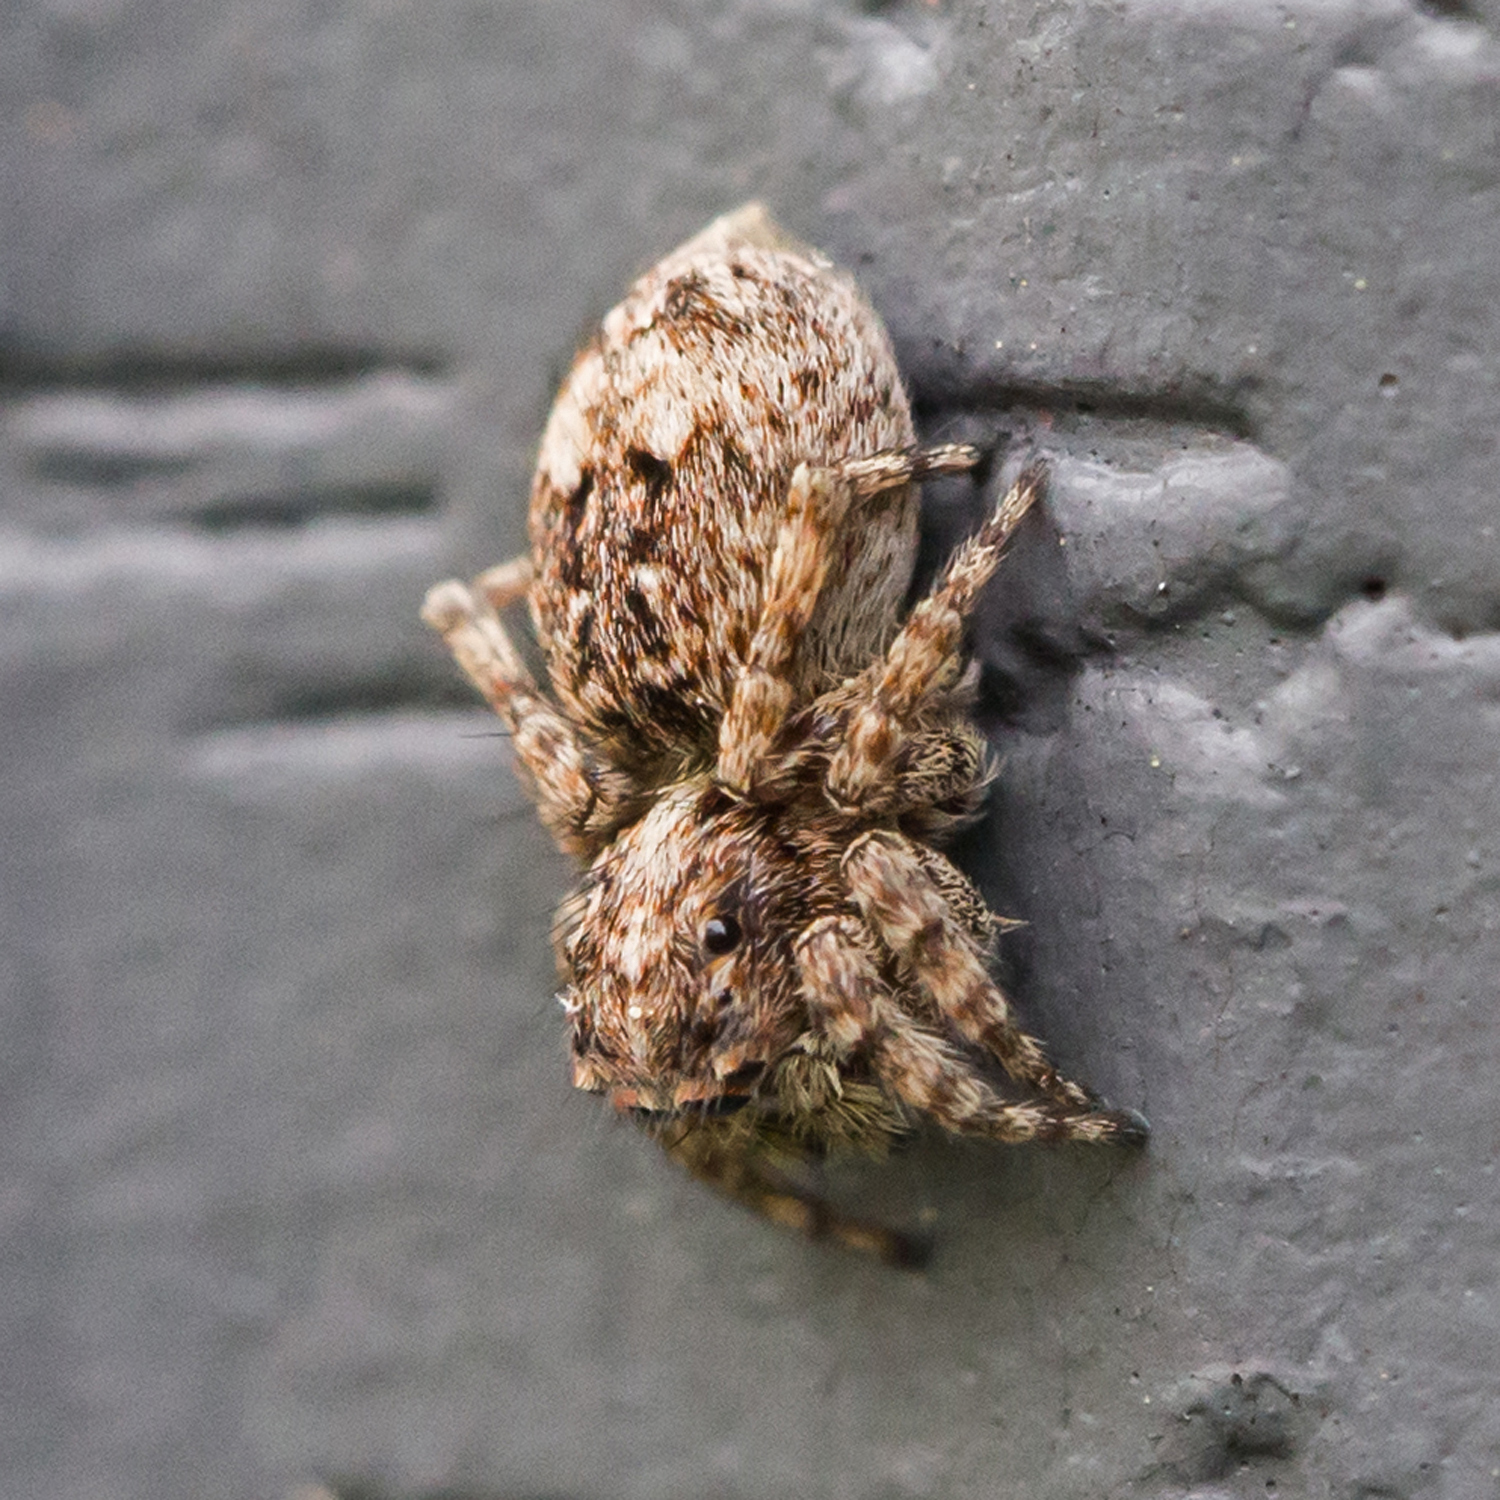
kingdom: Animalia
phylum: Arthropoda
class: Arachnida
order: Araneae
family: Salticidae
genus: Attulus
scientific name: Attulus fasciger
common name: Asiatic wall jumping spider
